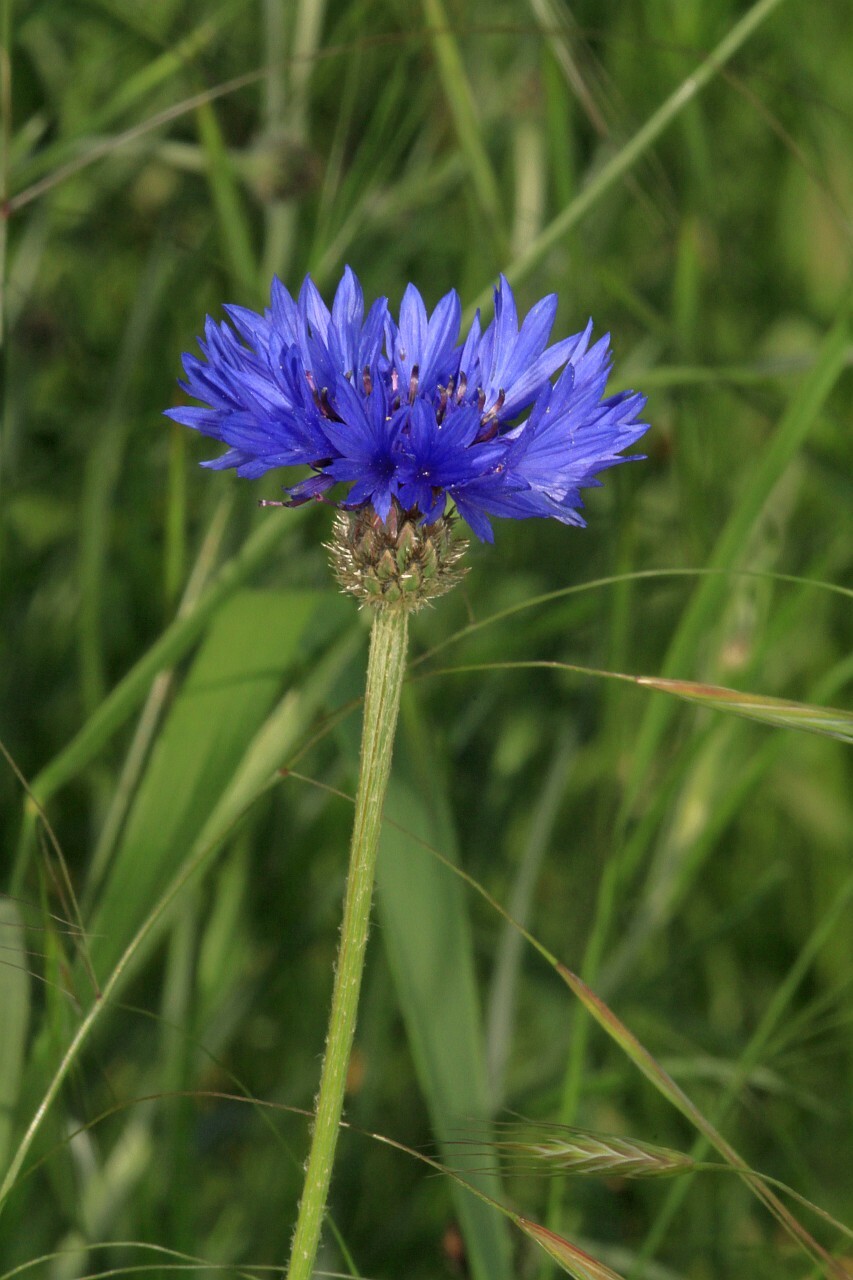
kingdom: Plantae
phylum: Tracheophyta
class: Magnoliopsida
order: Asterales
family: Asteraceae
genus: Centaurea
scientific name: Centaurea cyanus
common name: Cornflower
